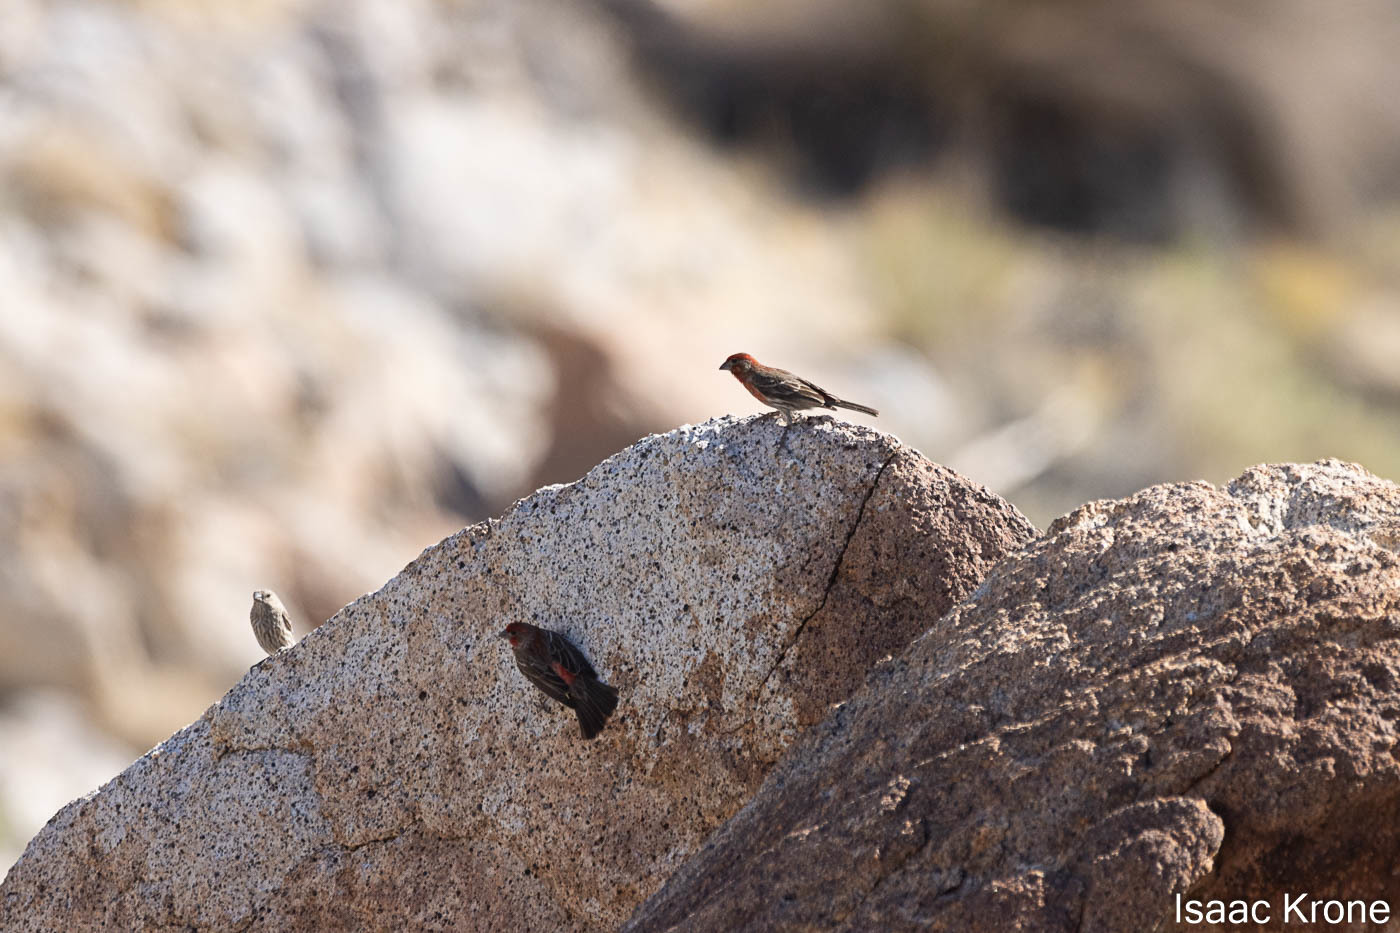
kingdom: Animalia
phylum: Chordata
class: Aves
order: Passeriformes
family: Fringillidae
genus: Haemorhous
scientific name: Haemorhous mexicanus
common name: House finch
